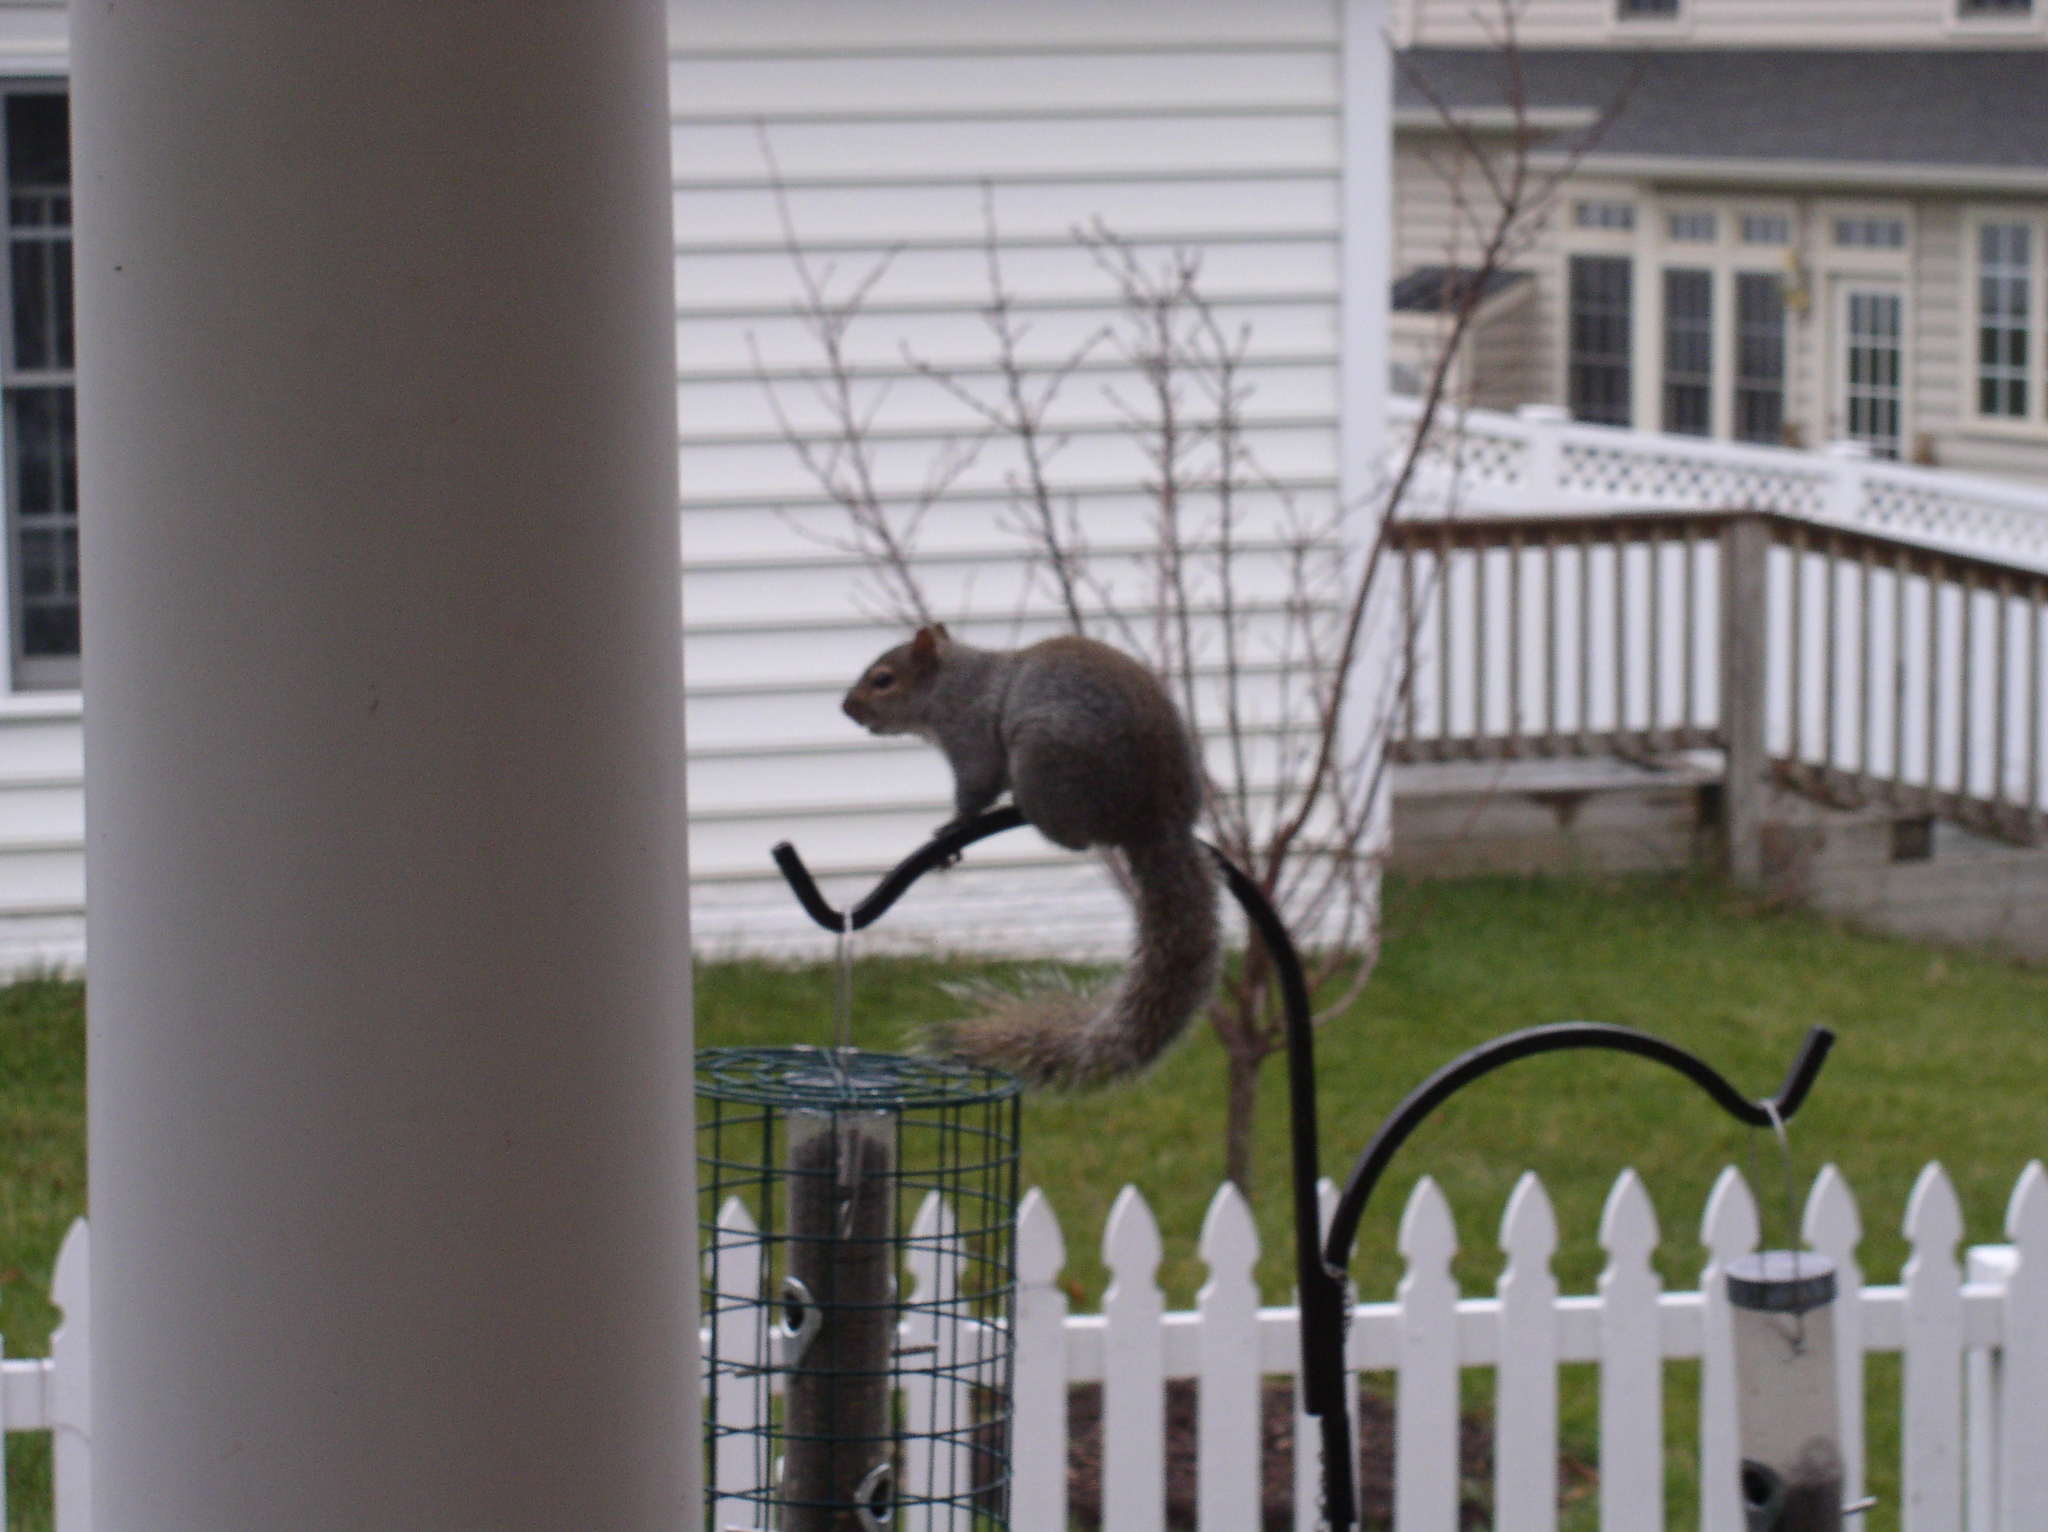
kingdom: Animalia
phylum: Chordata
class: Mammalia
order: Rodentia
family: Sciuridae
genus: Sciurus
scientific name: Sciurus carolinensis
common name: Eastern gray squirrel
